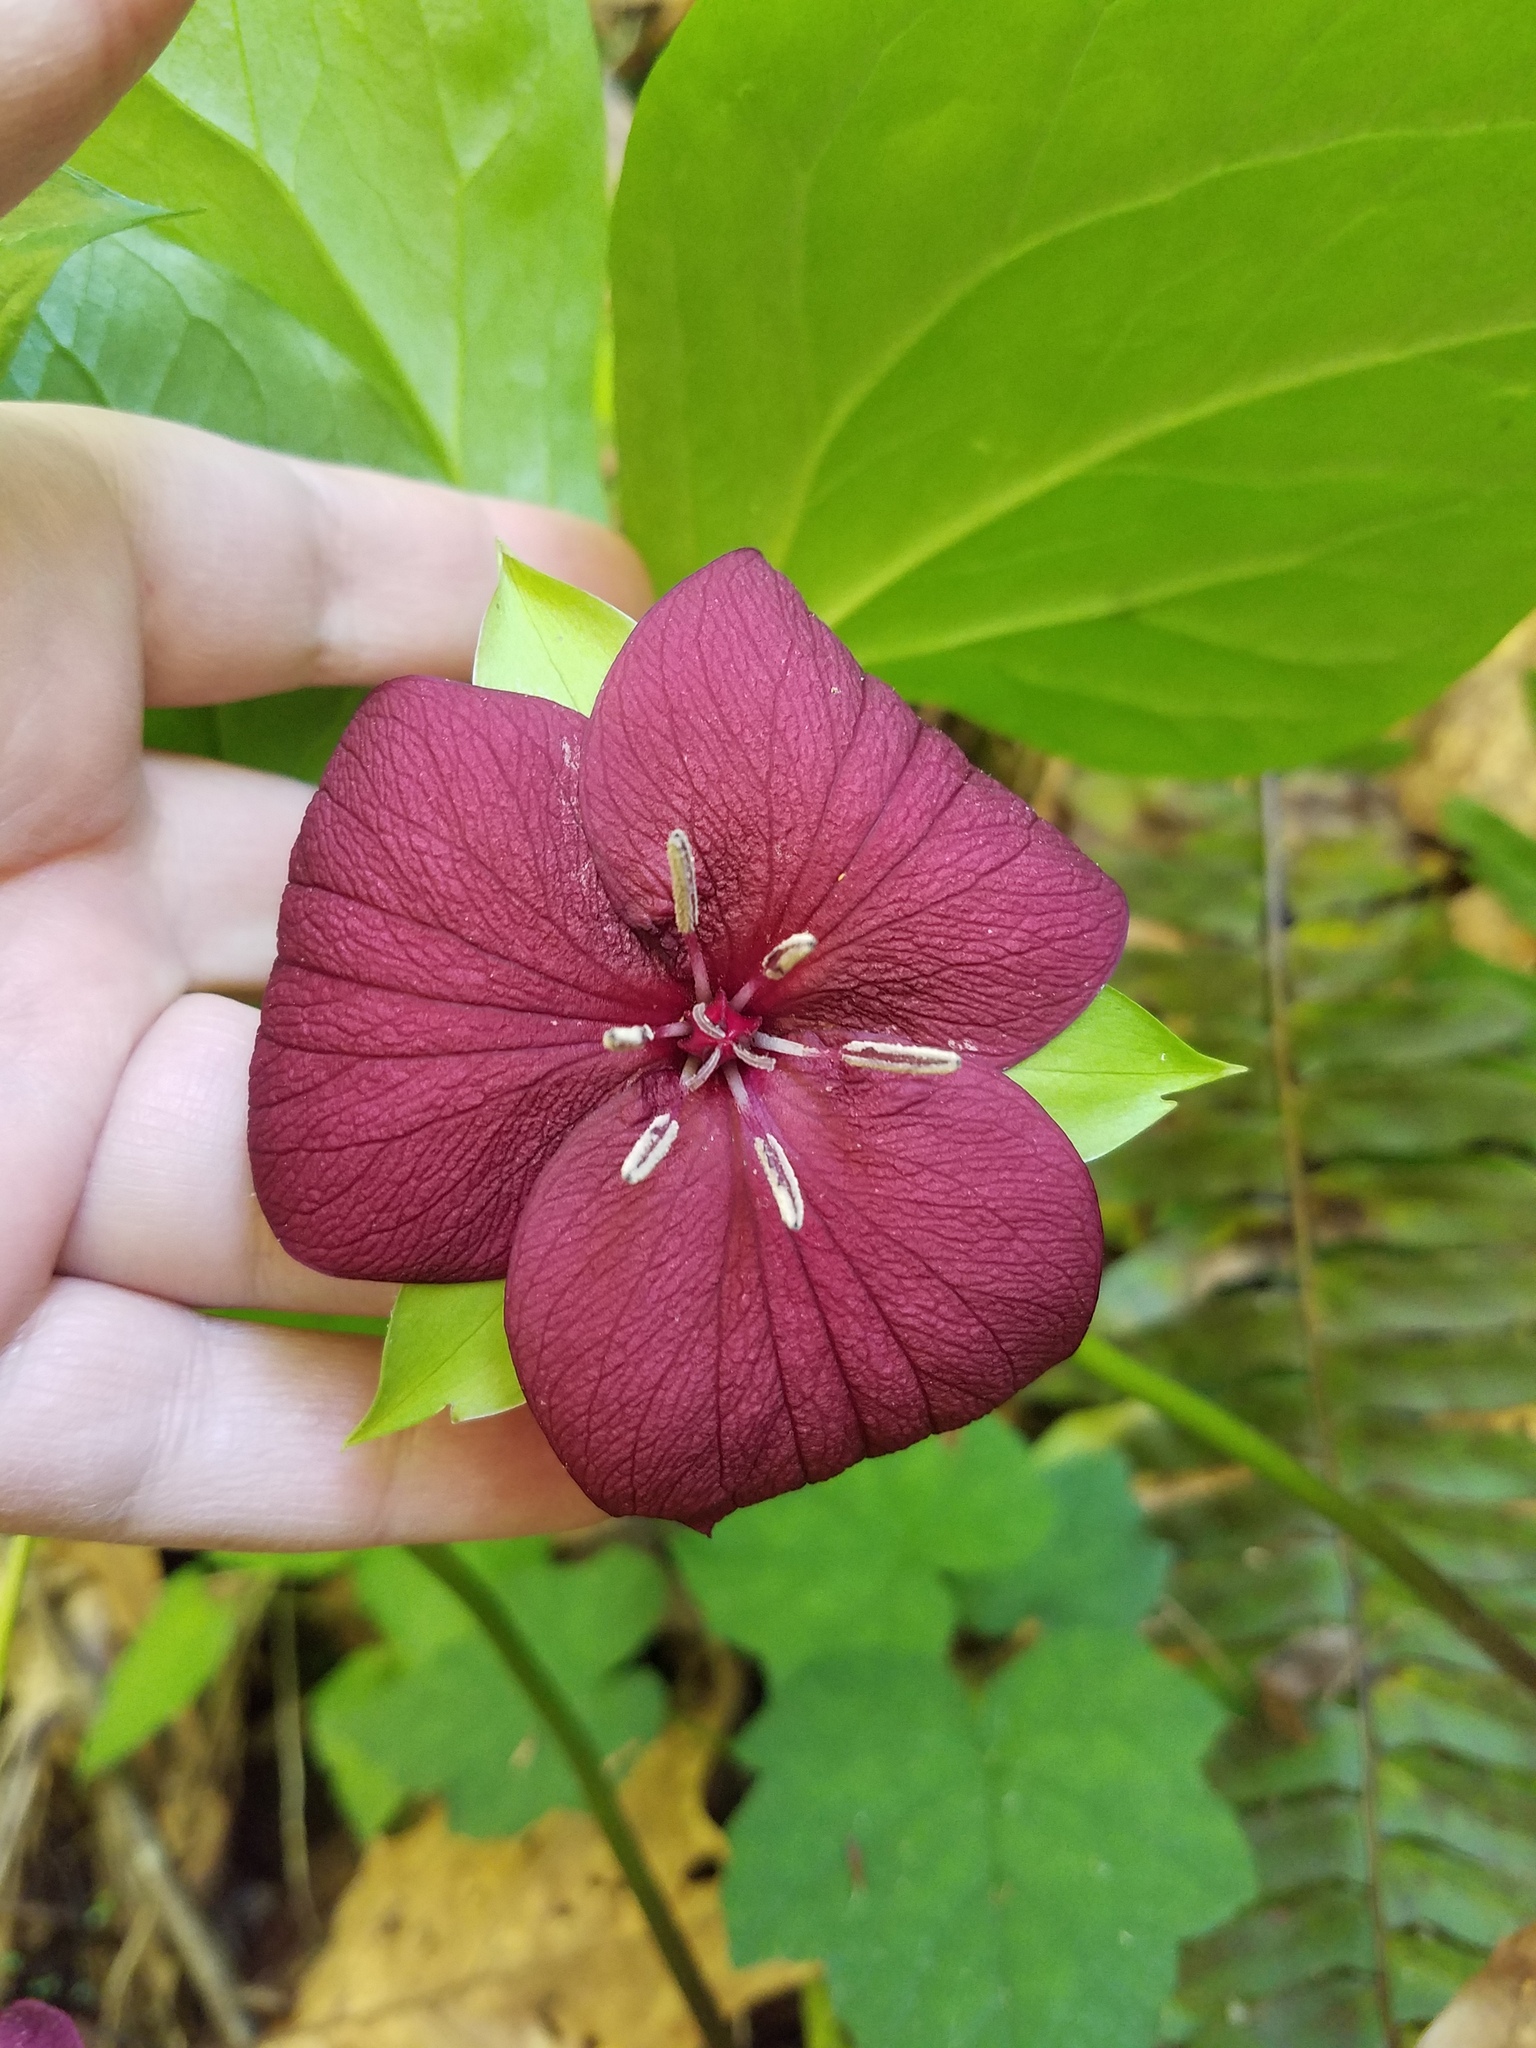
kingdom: Plantae
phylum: Tracheophyta
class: Liliopsida
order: Liliales
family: Melanthiaceae
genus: Trillium
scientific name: Trillium vaseyi
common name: Sweet trillium
